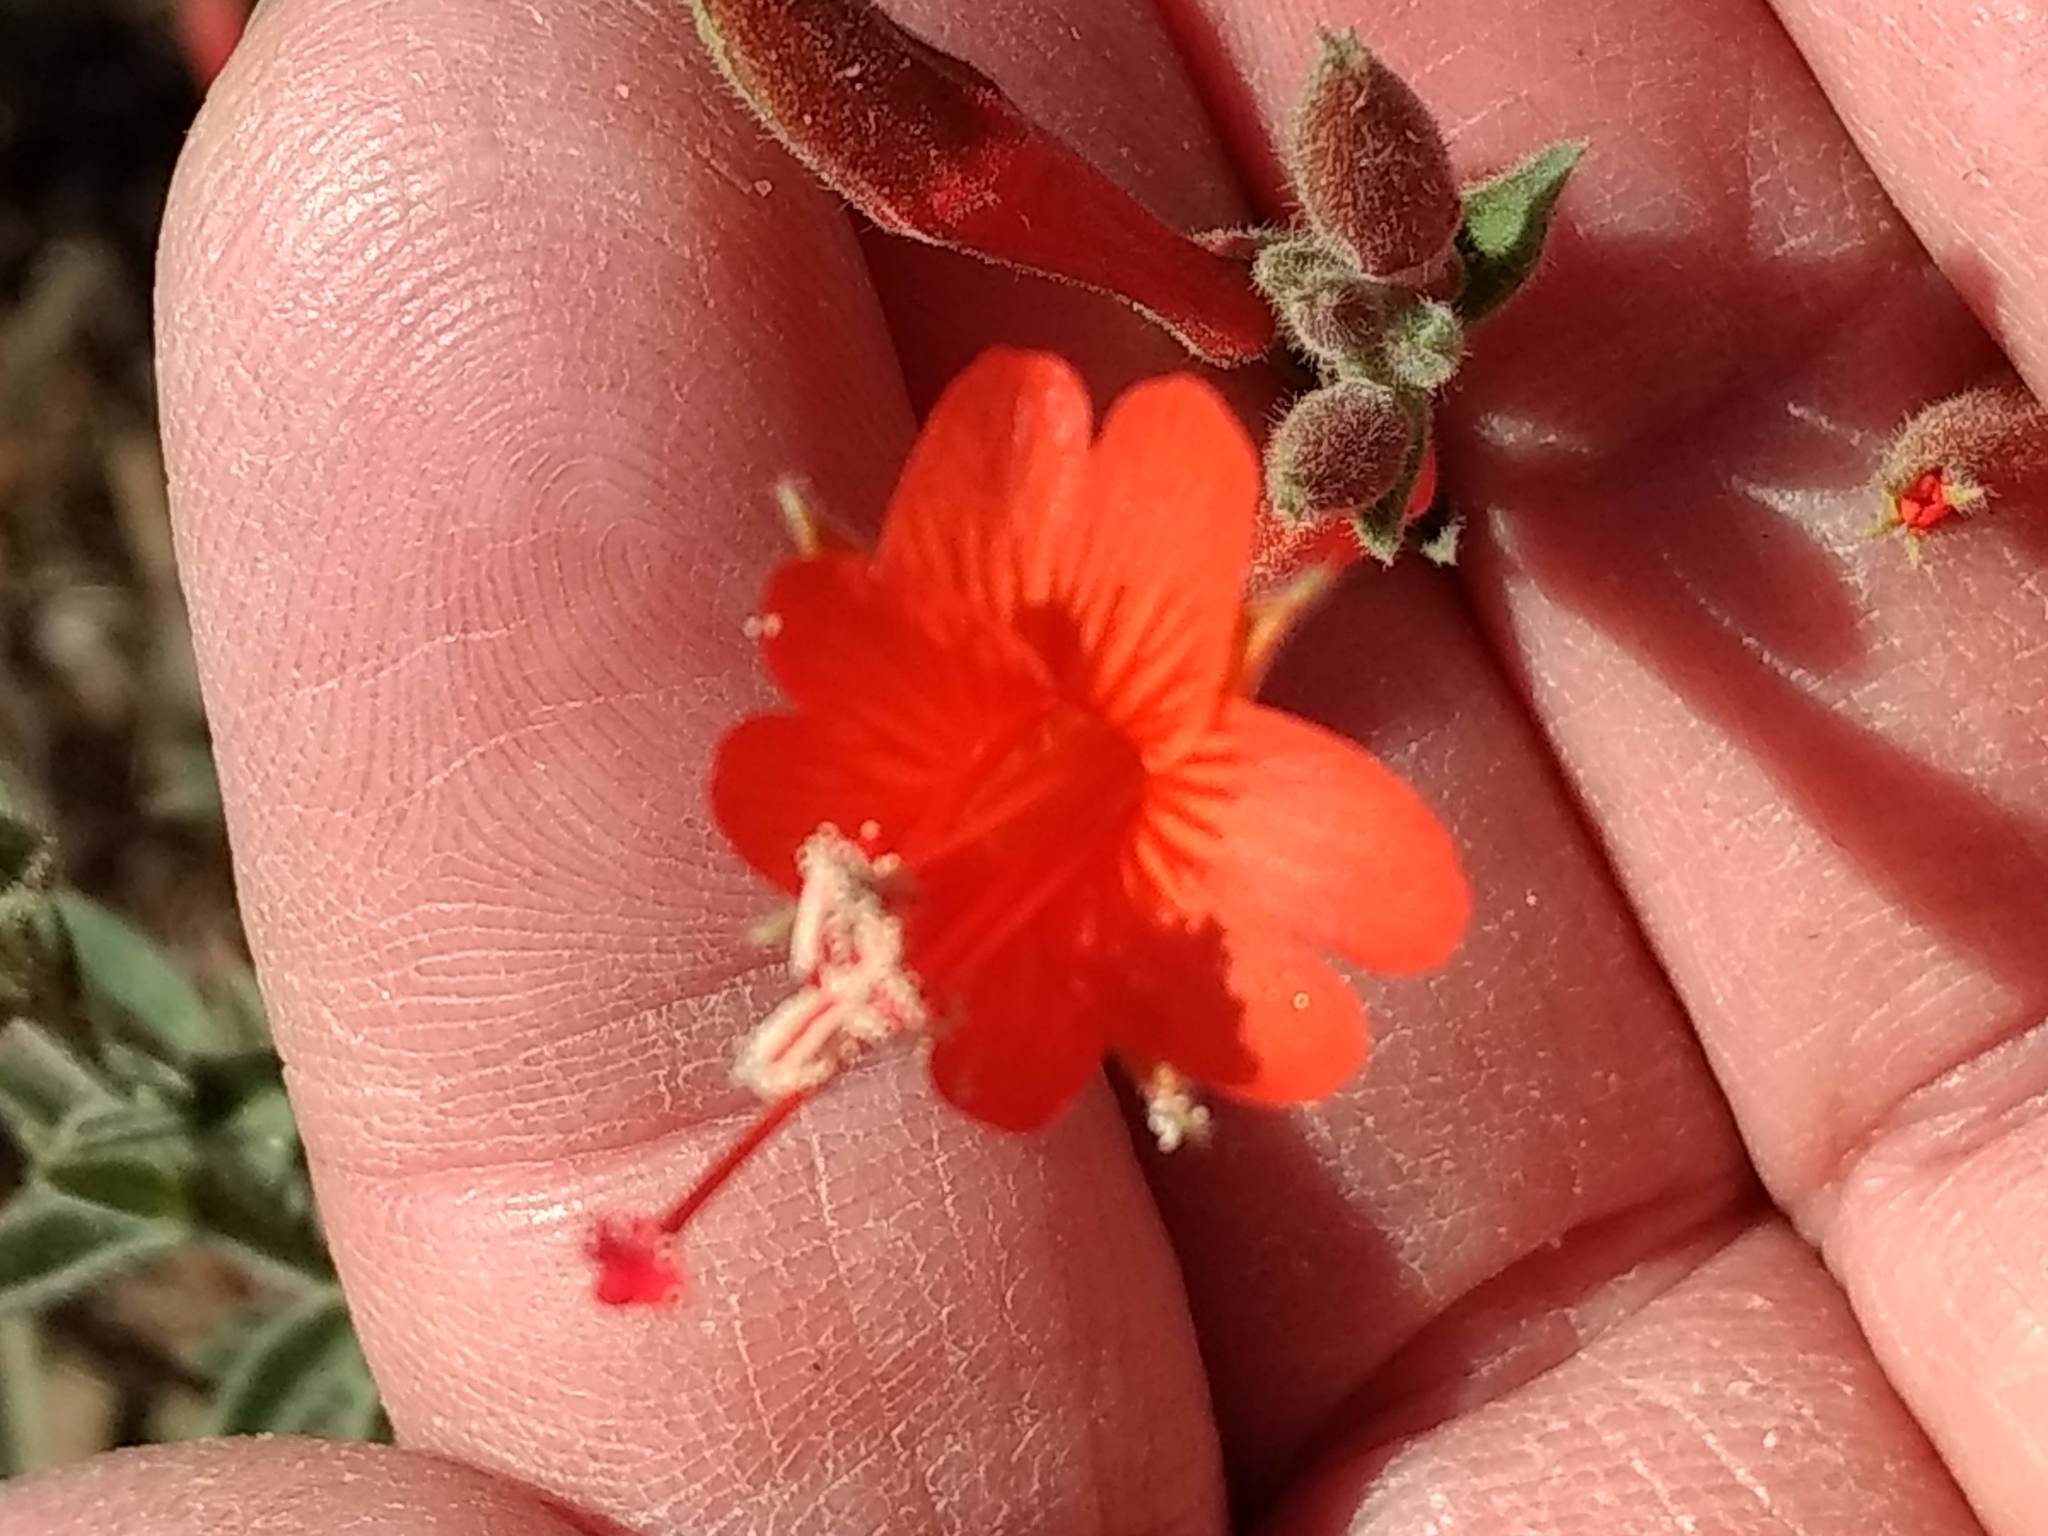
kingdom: Plantae
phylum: Tracheophyta
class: Magnoliopsida
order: Myrtales
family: Onagraceae
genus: Epilobium
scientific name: Epilobium canum
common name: California-fuchsia
